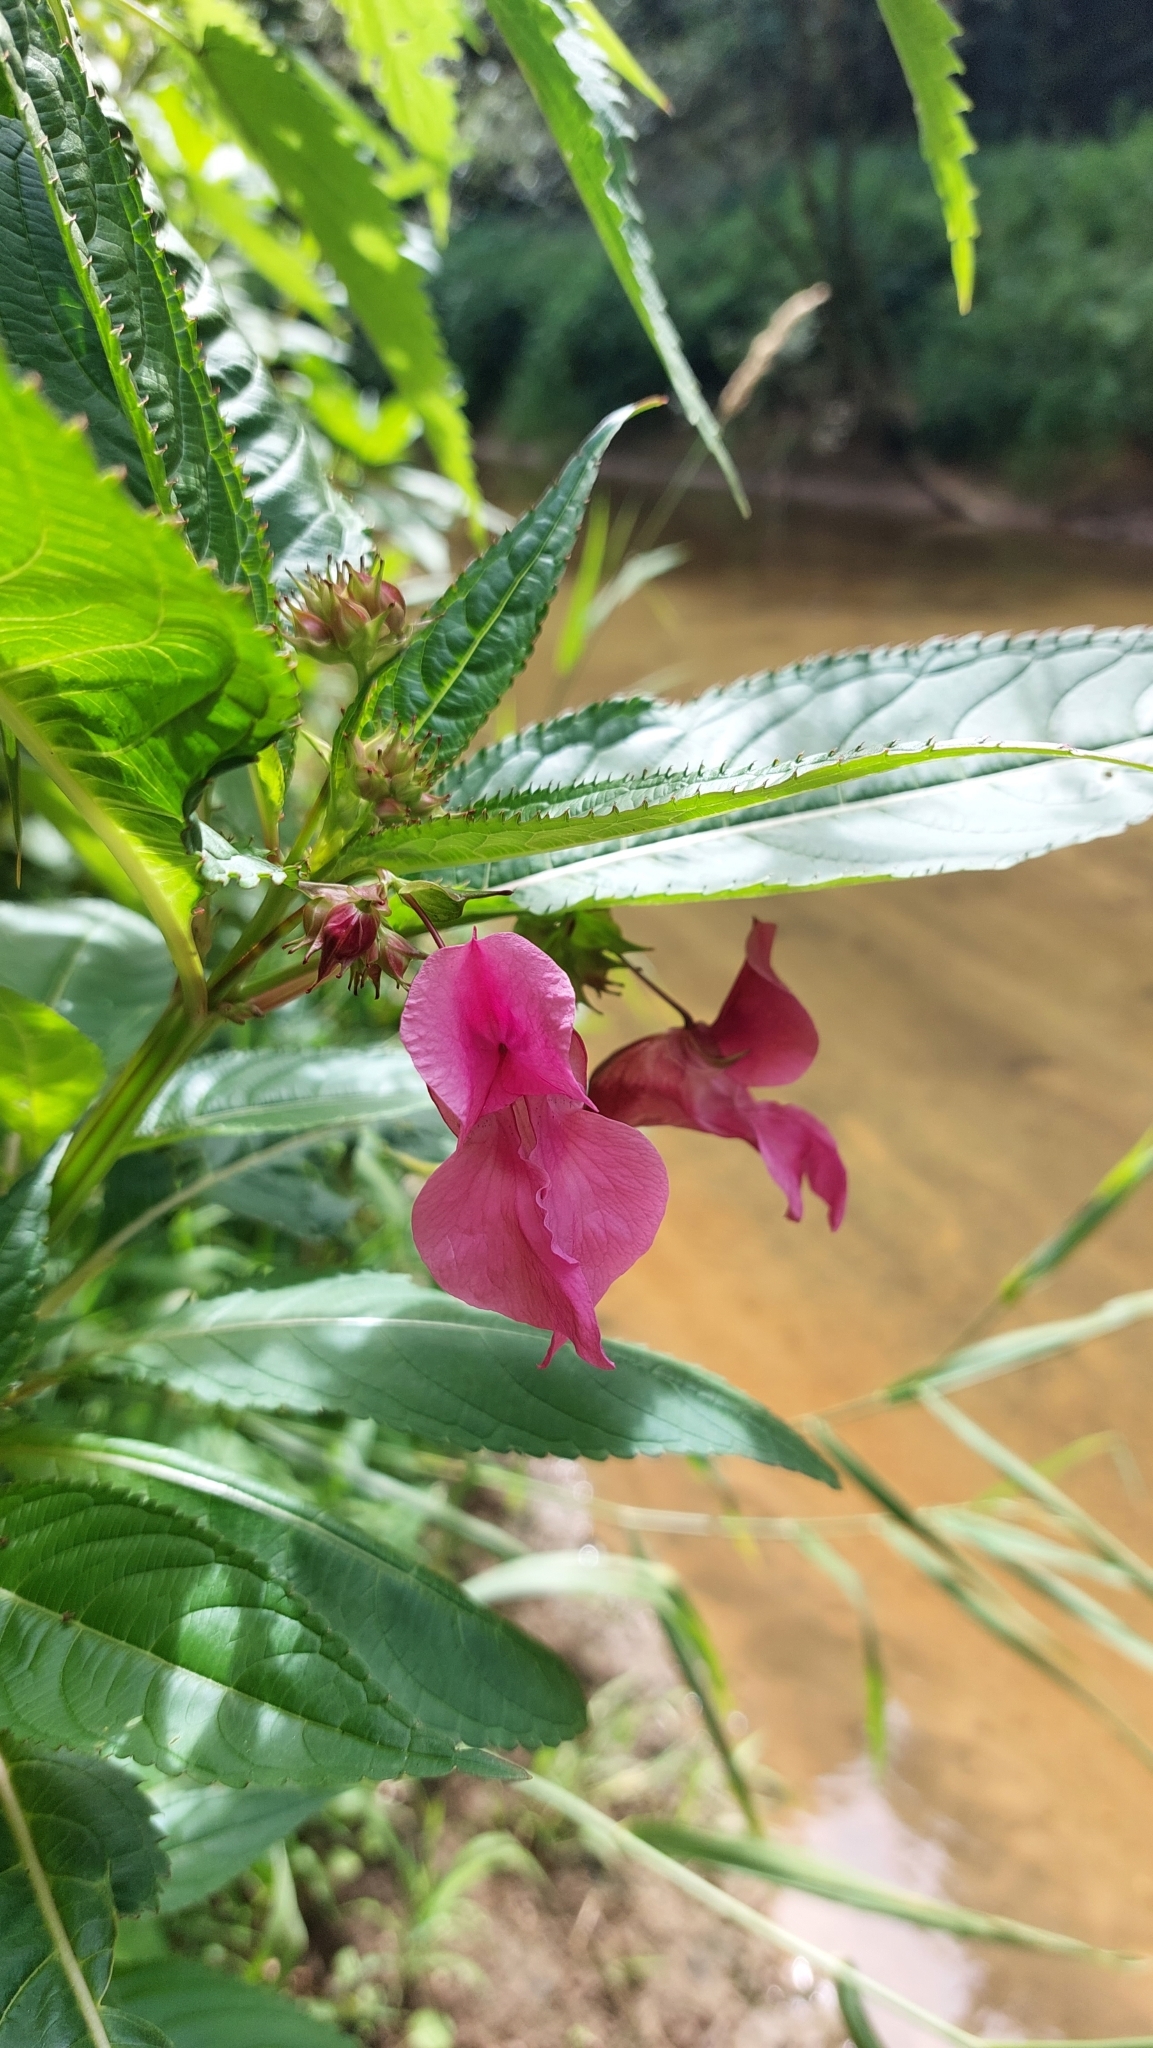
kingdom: Plantae
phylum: Tracheophyta
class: Magnoliopsida
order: Ericales
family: Balsaminaceae
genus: Impatiens
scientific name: Impatiens glandulifera
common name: Himalayan balsam
